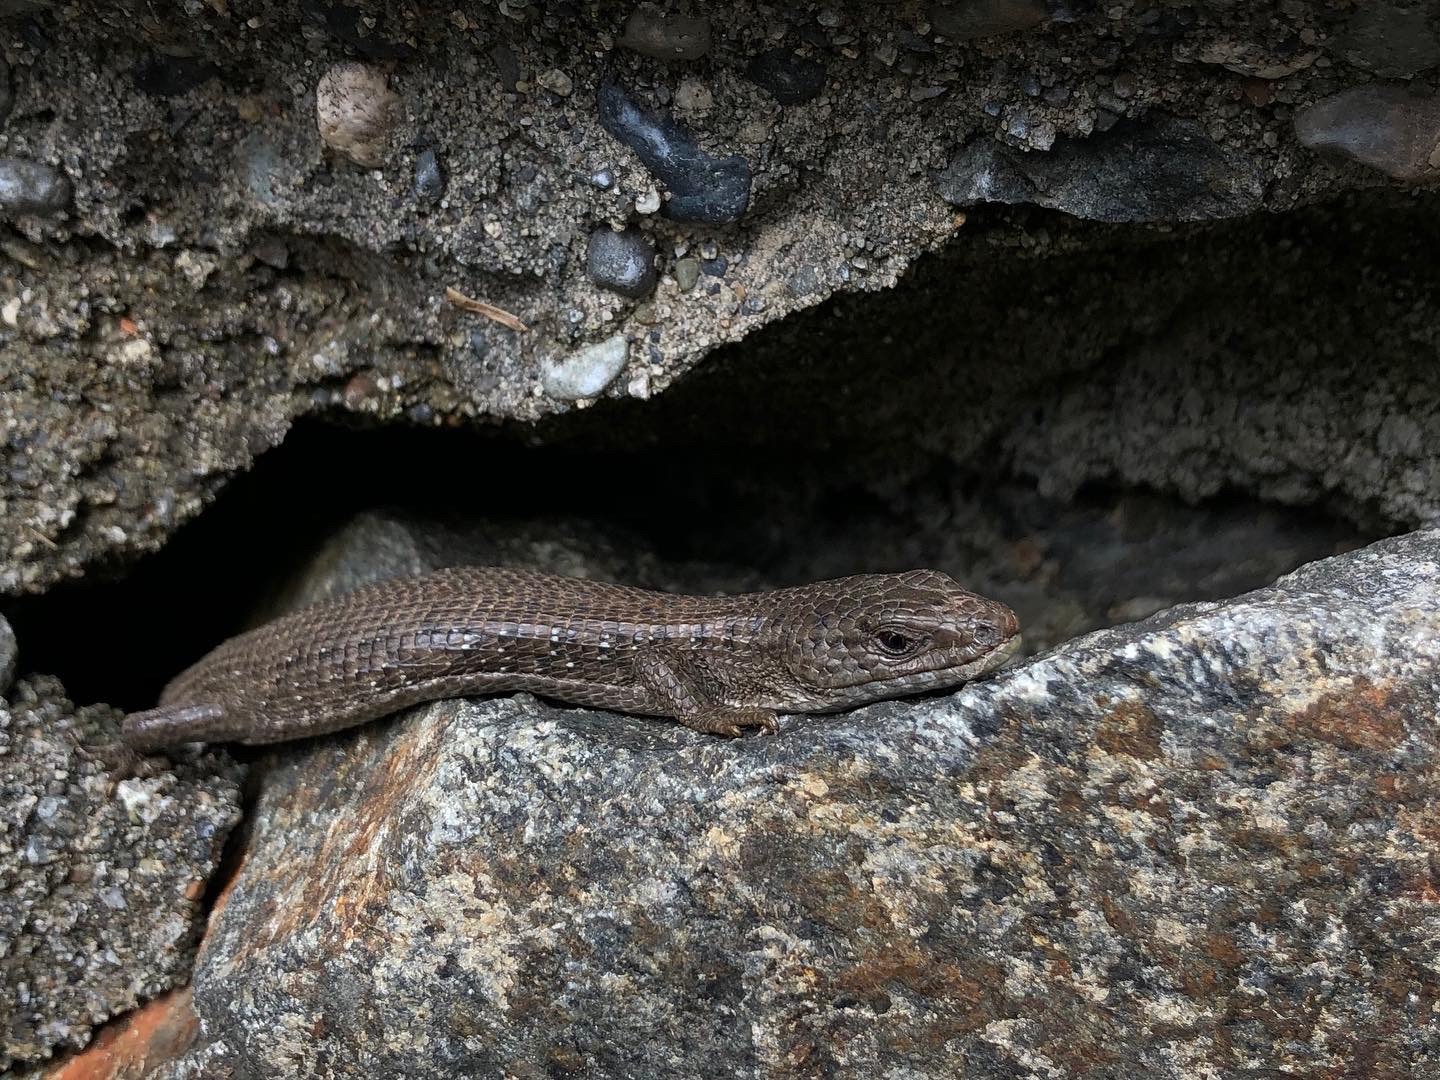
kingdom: Animalia
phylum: Chordata
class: Squamata
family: Anguidae
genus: Elgaria
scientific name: Elgaria coerulea
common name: Northern alligator lizard
